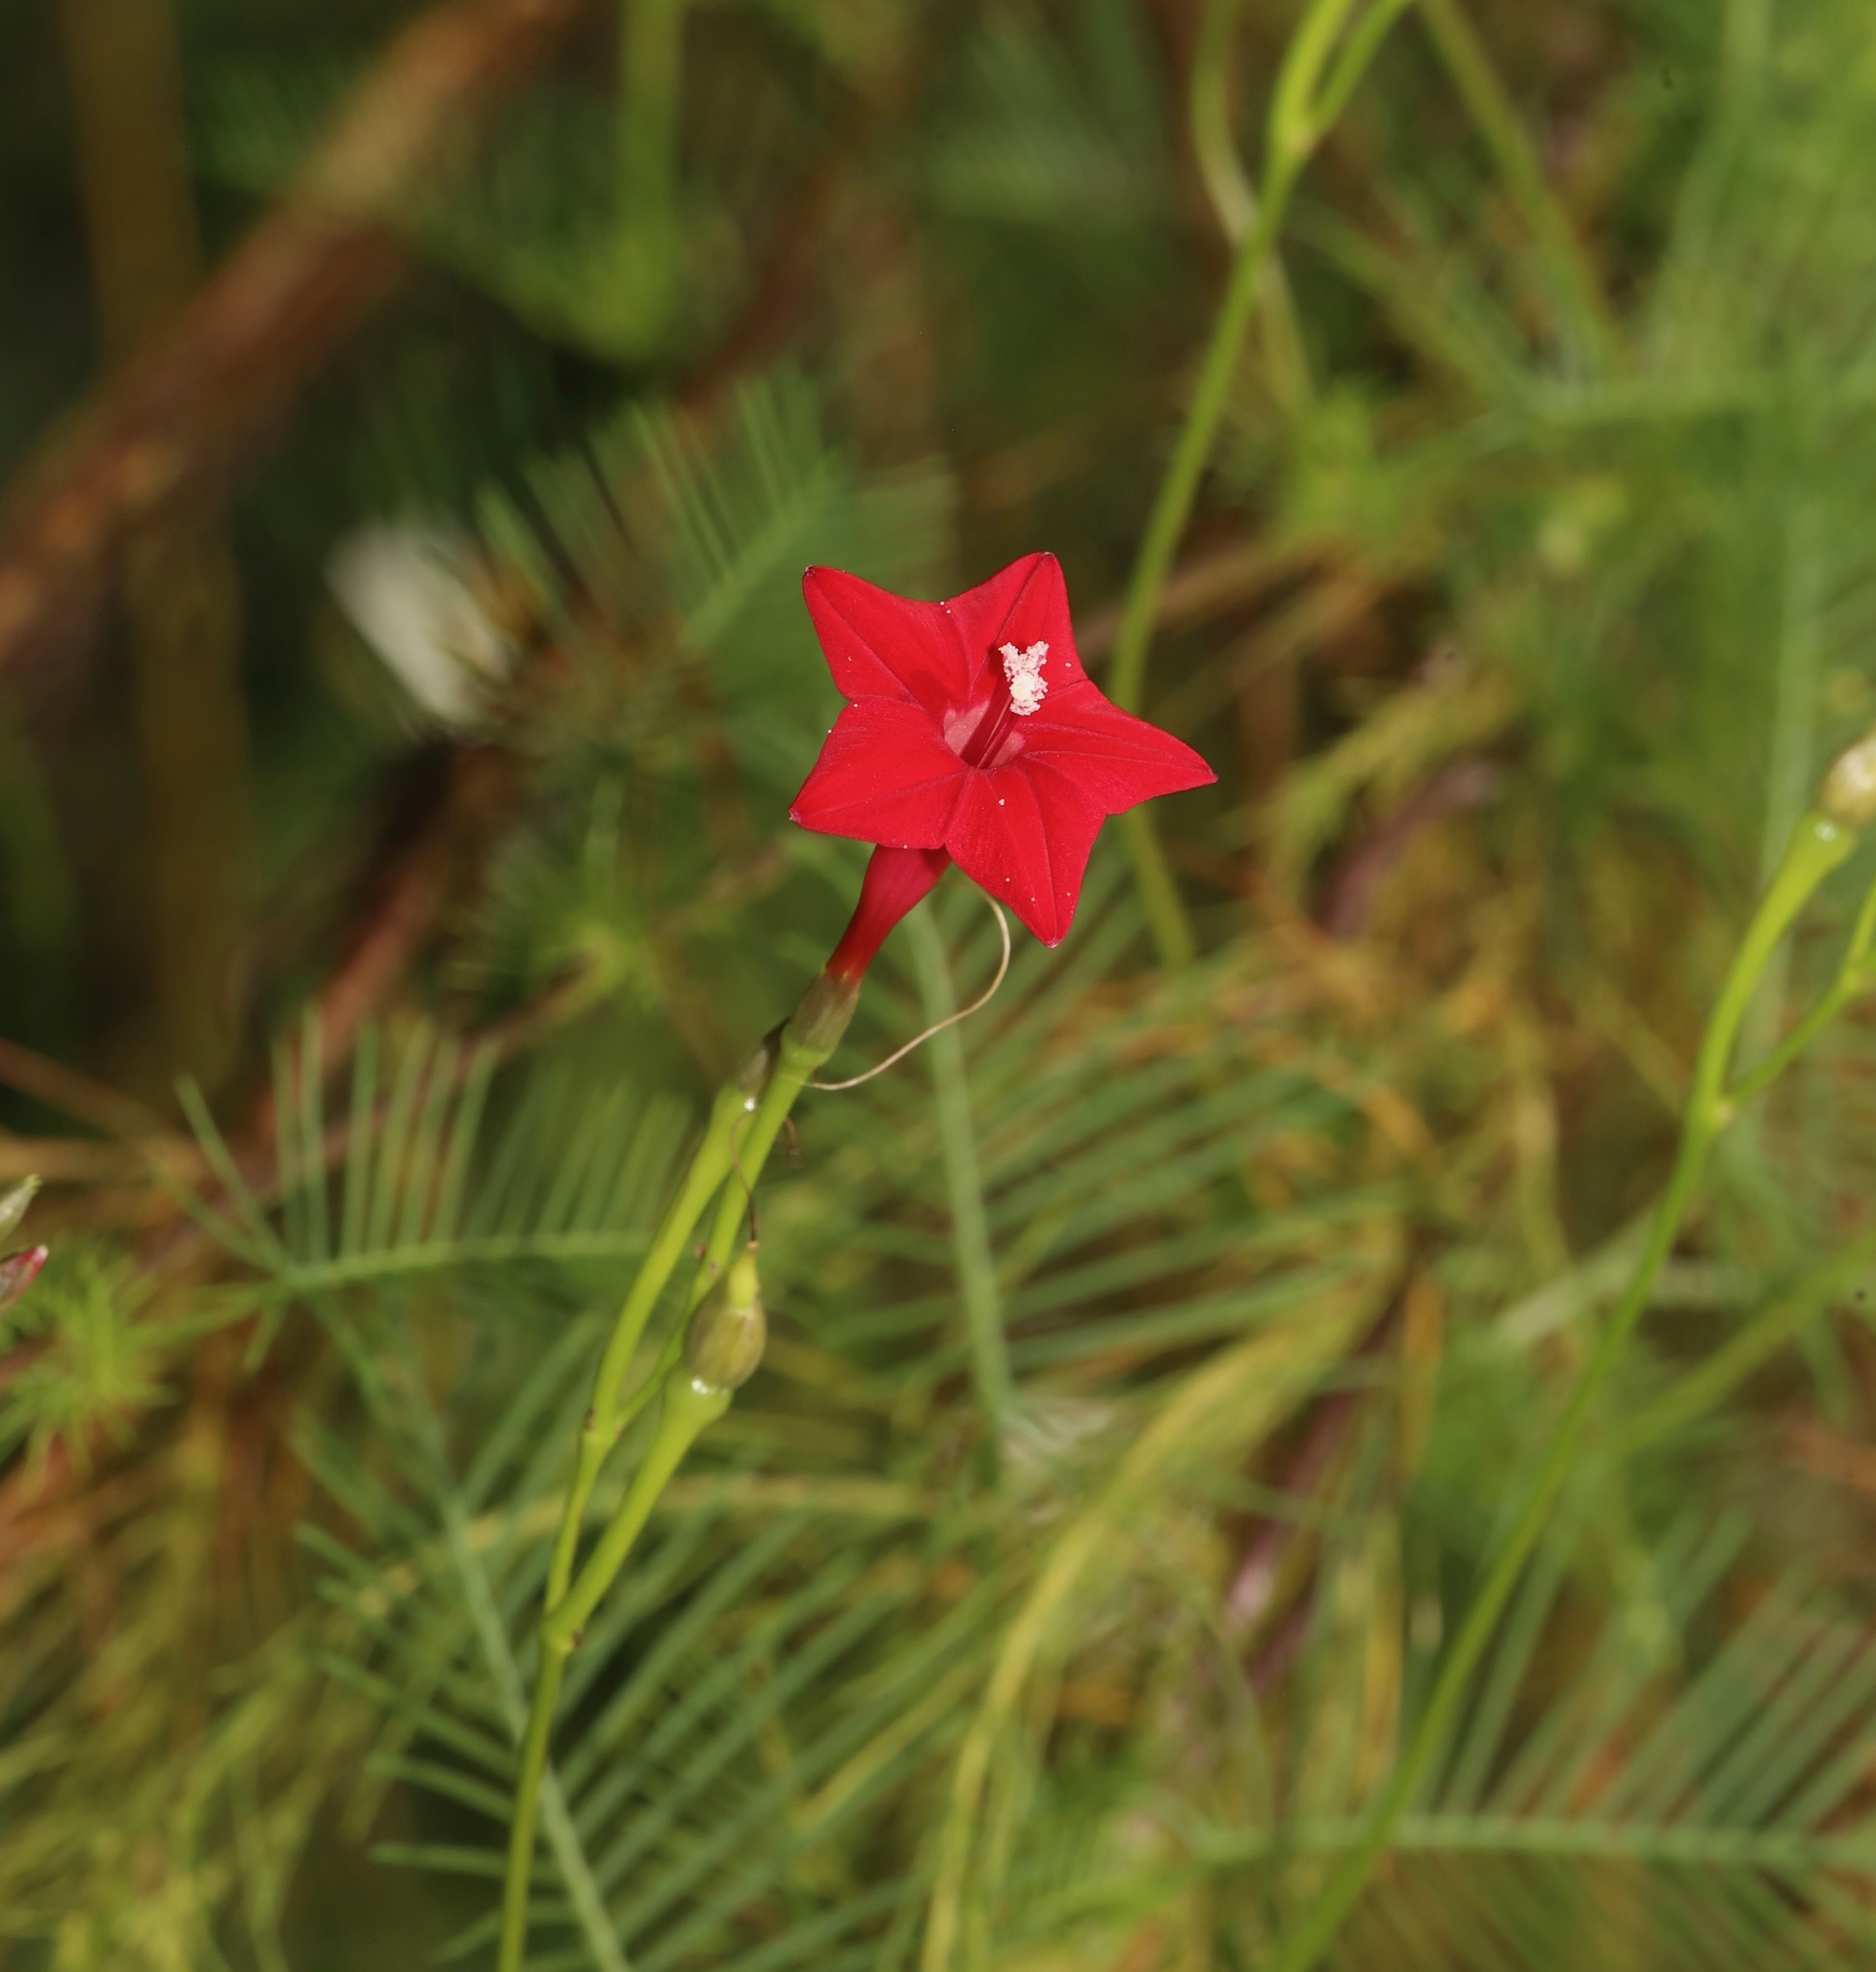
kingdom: Plantae
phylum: Tracheophyta
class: Magnoliopsida
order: Solanales
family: Convolvulaceae
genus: Ipomoea
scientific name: Ipomoea quamoclit
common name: Cypress vine
